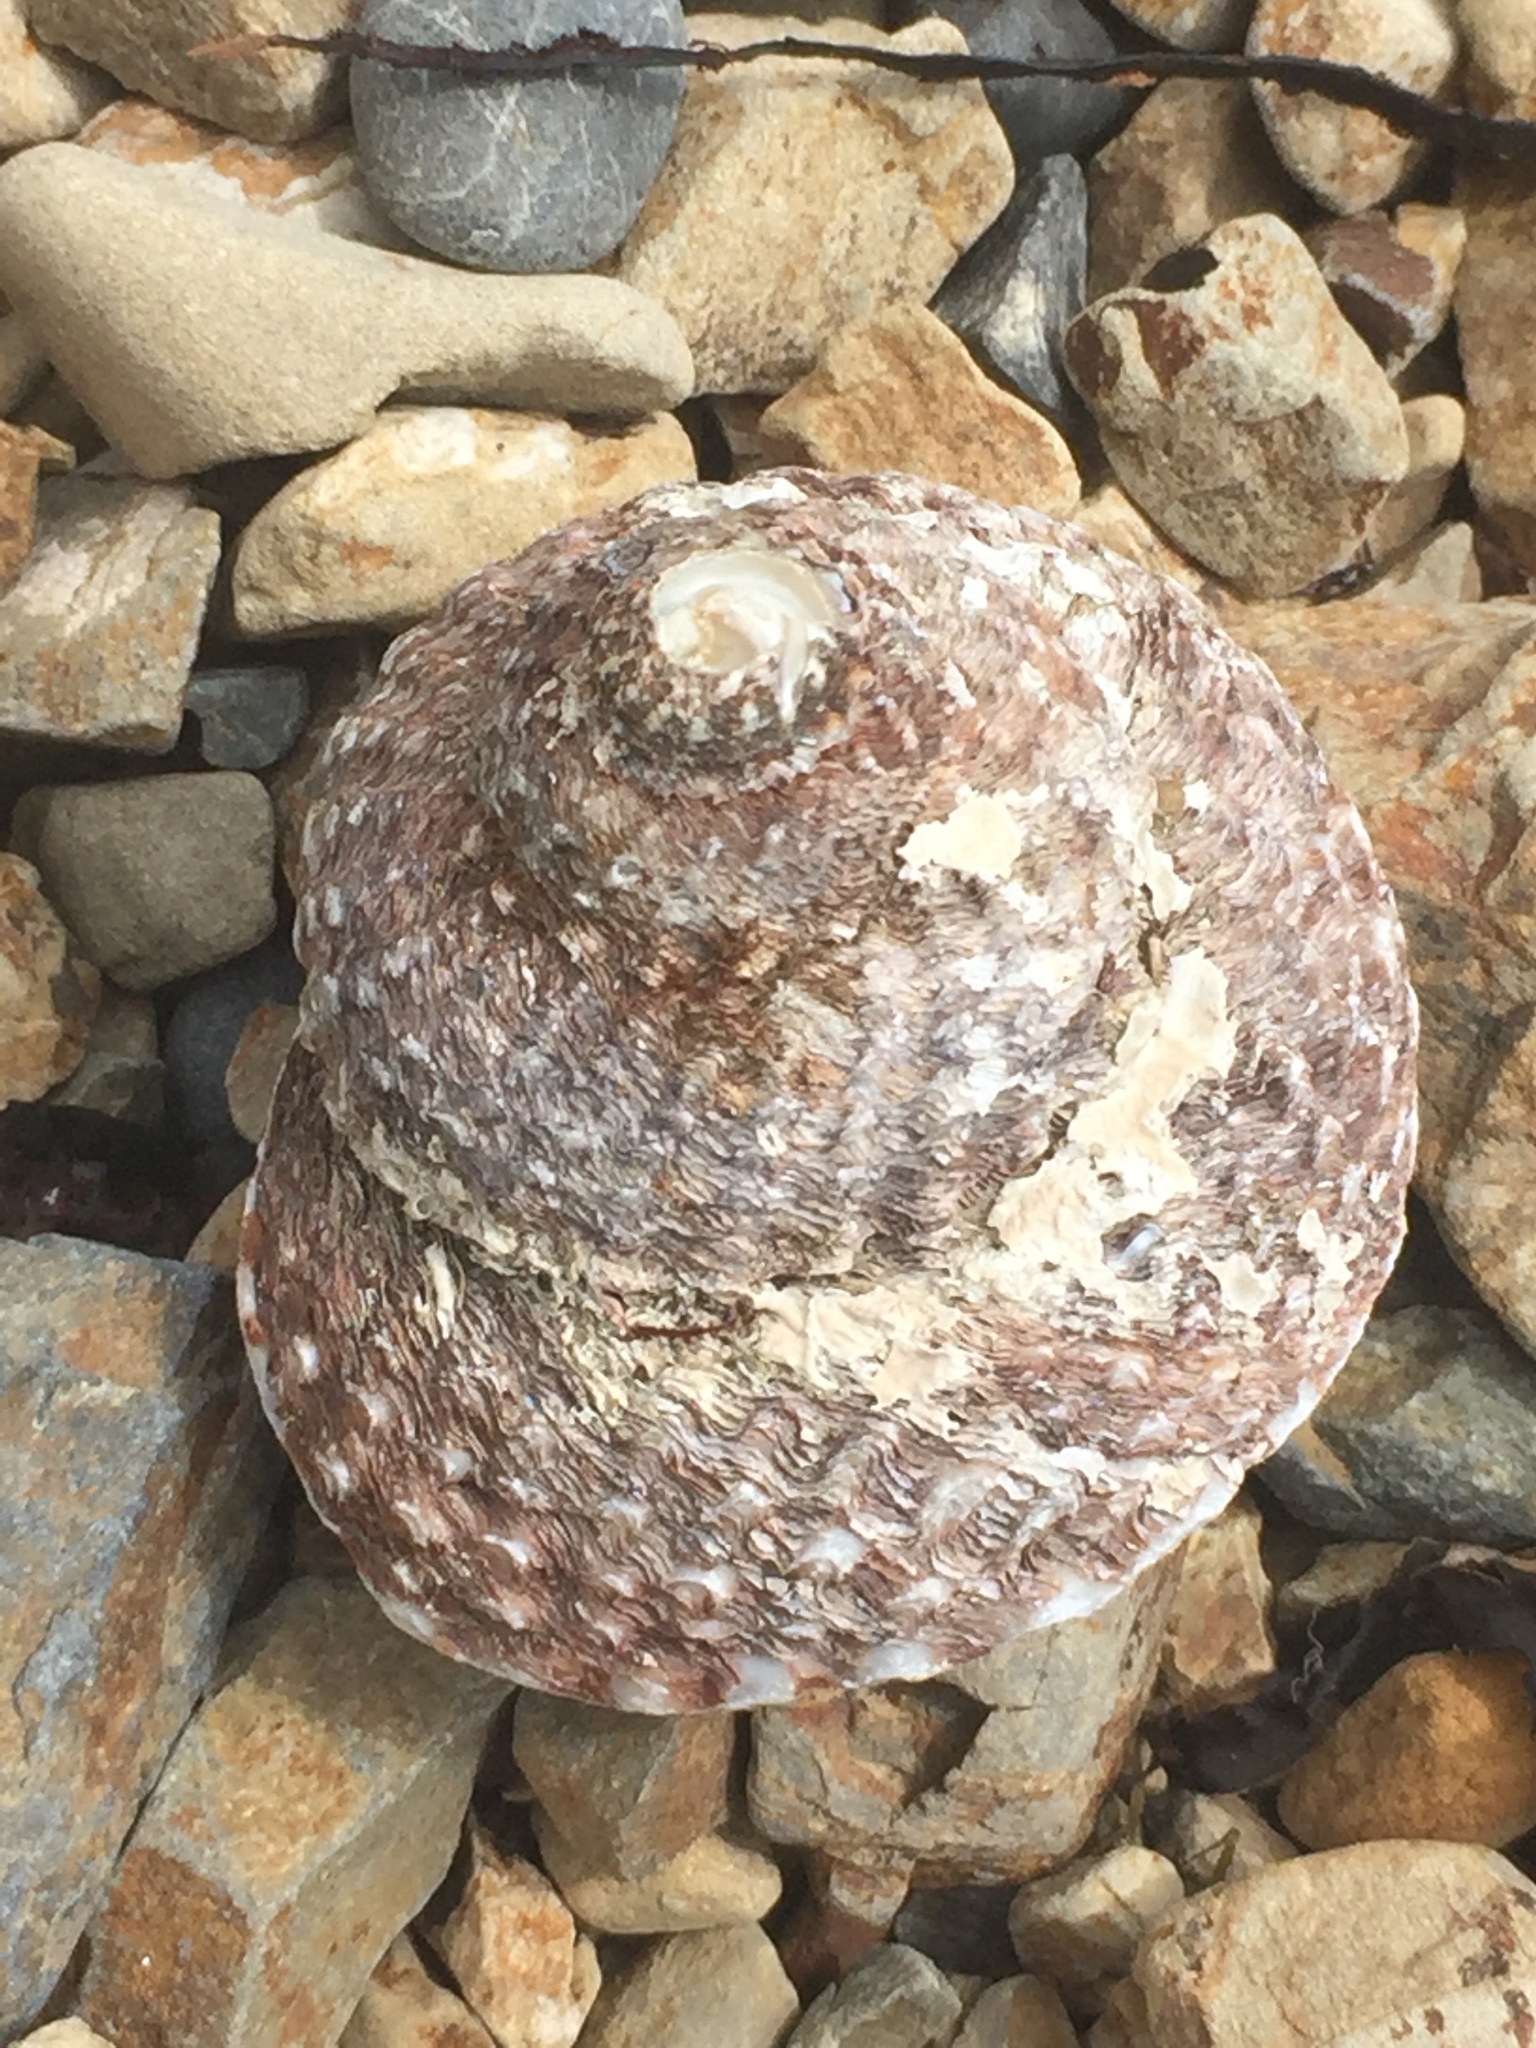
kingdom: Animalia
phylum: Mollusca
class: Gastropoda
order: Trochida
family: Turbinidae
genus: Cookia
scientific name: Cookia sulcata
